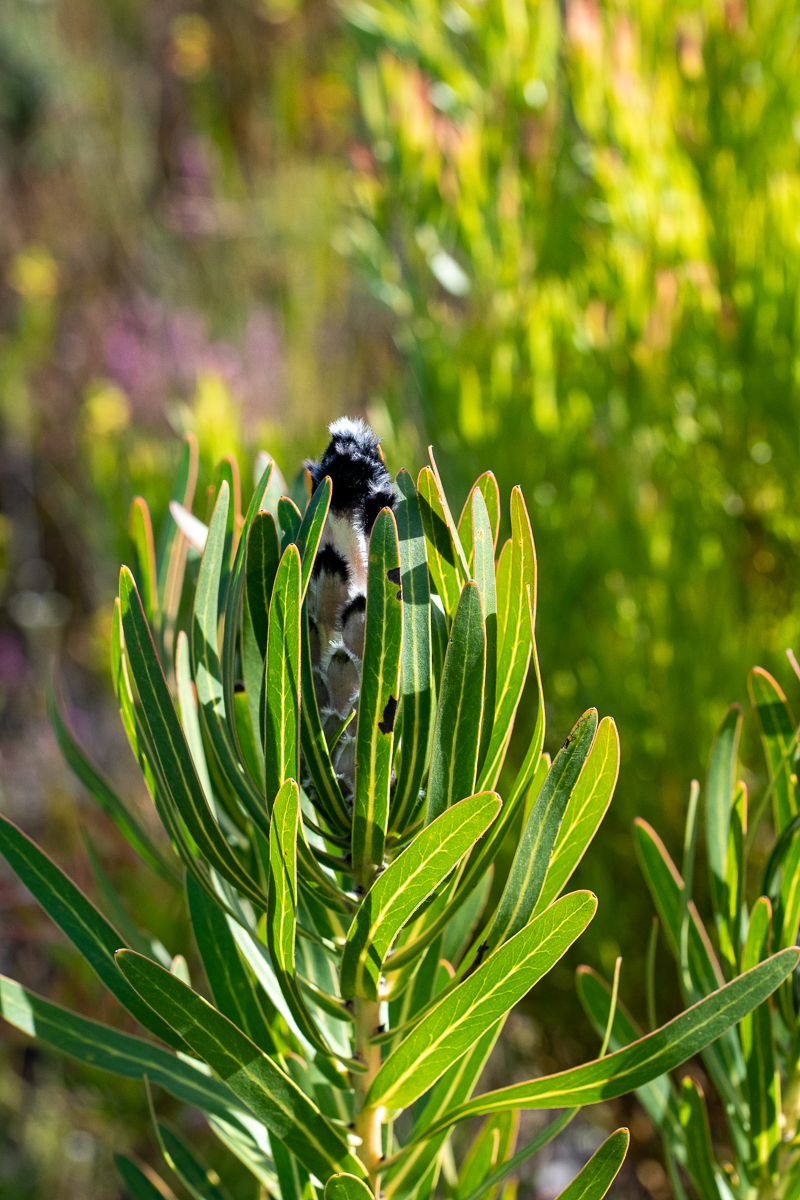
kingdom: Plantae
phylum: Tracheophyta
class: Magnoliopsida
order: Proteales
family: Proteaceae
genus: Protea
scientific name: Protea lepidocarpodendron
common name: Black-bearded protea
